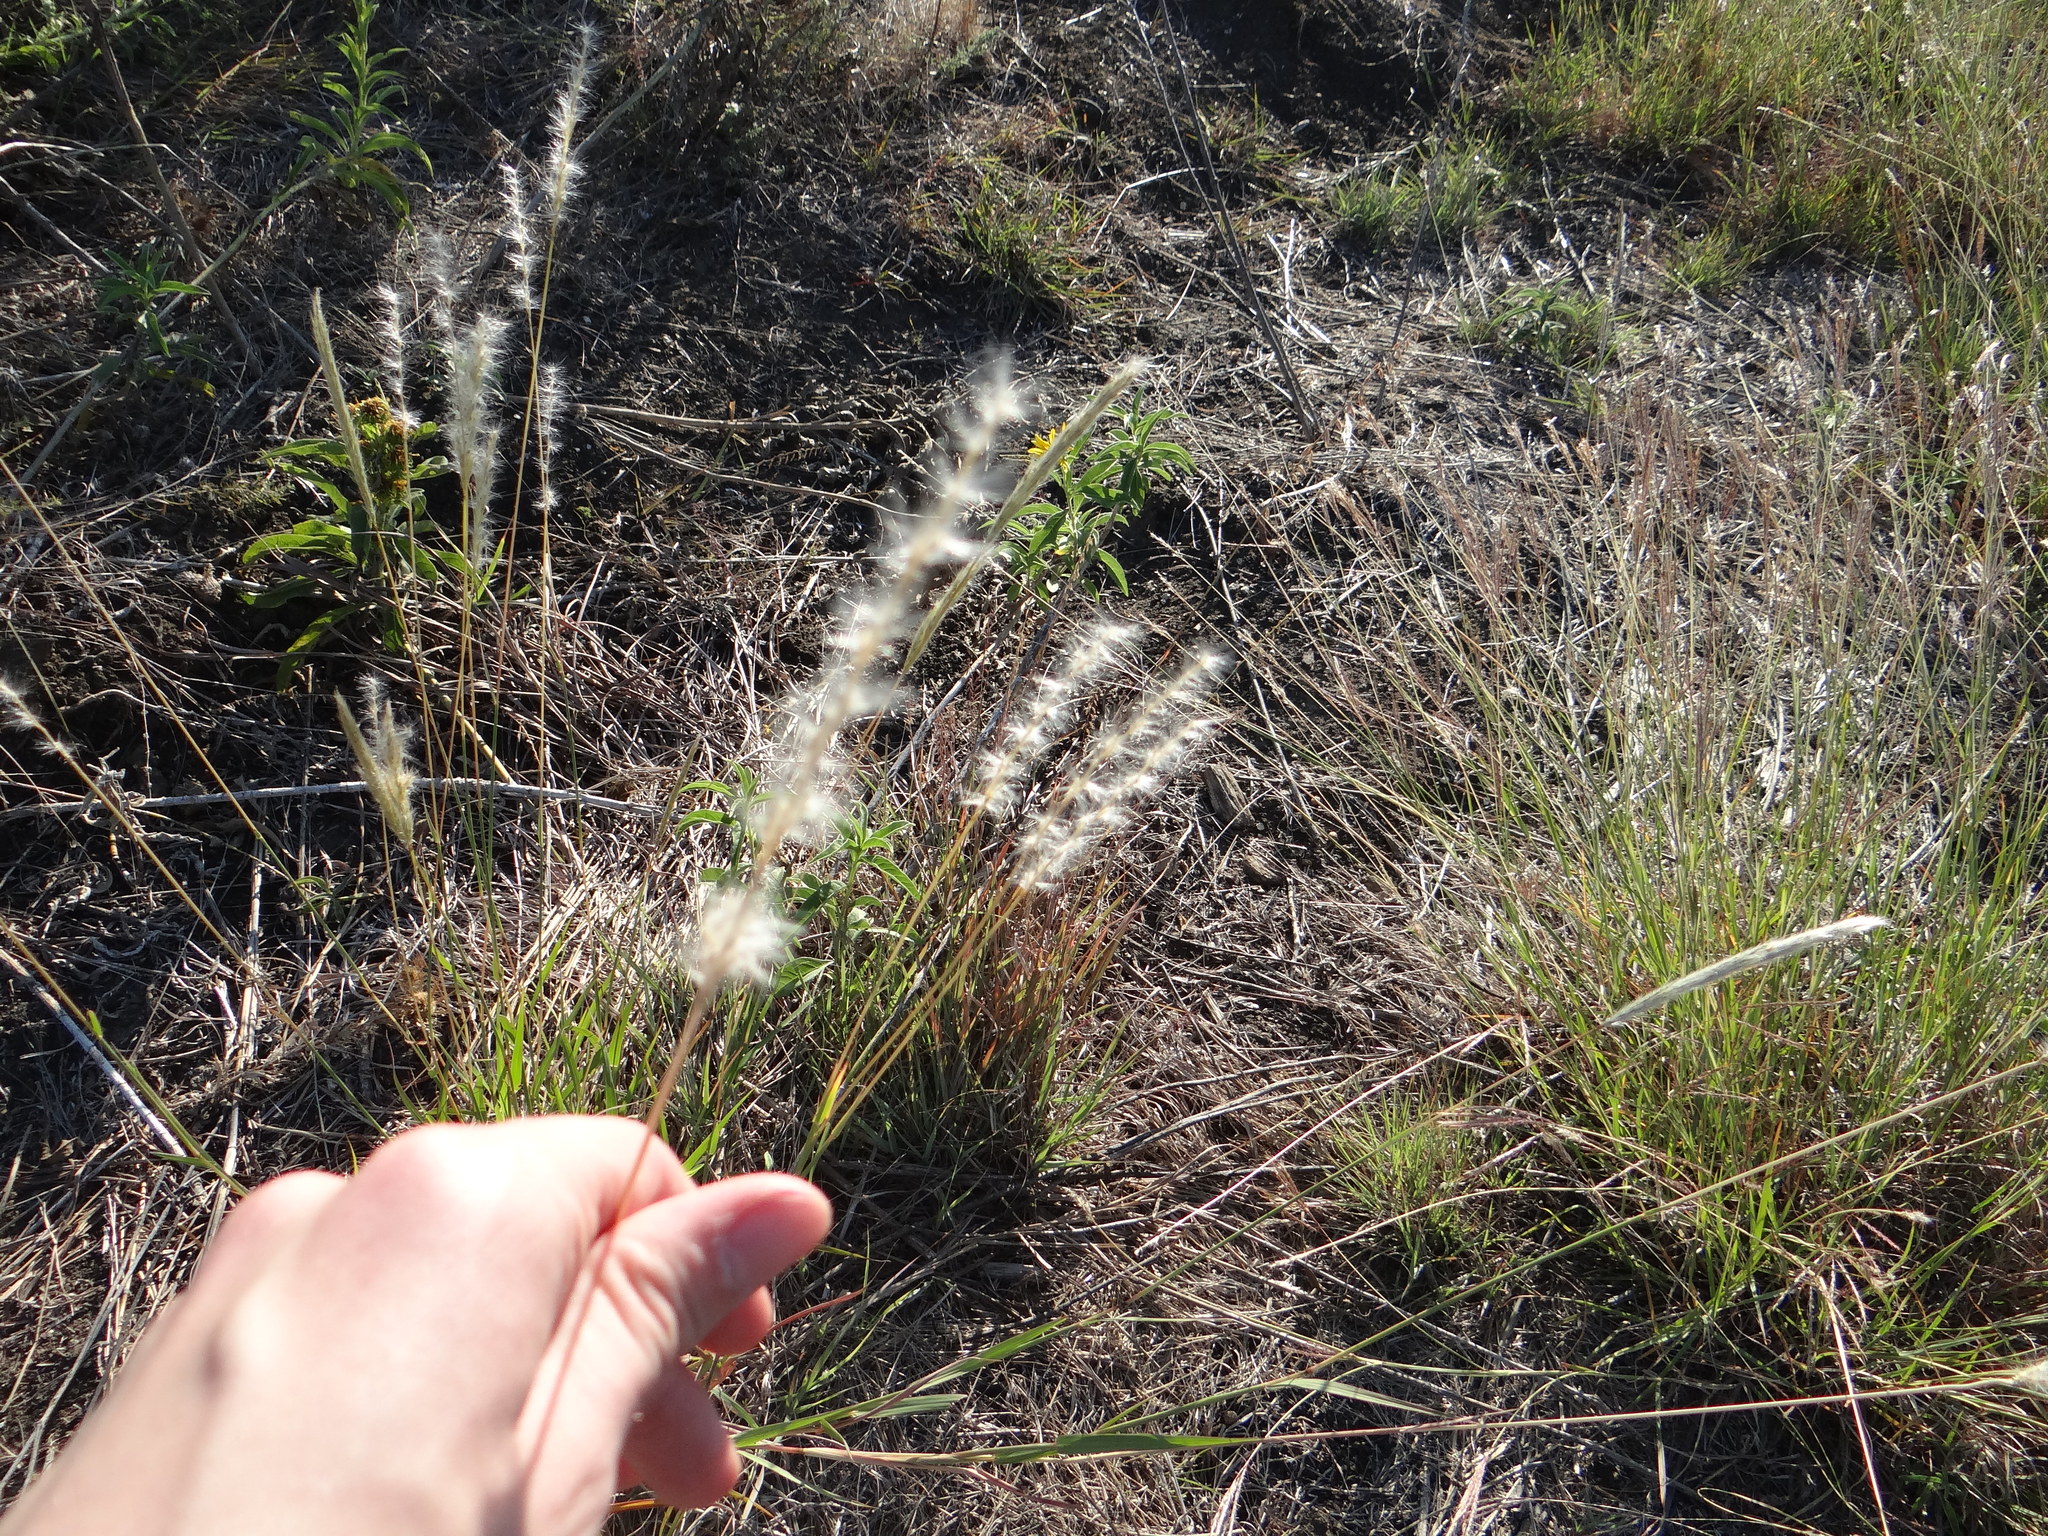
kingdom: Plantae
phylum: Tracheophyta
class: Liliopsida
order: Poales
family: Poaceae
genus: Bothriochloa
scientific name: Bothriochloa torreyana
